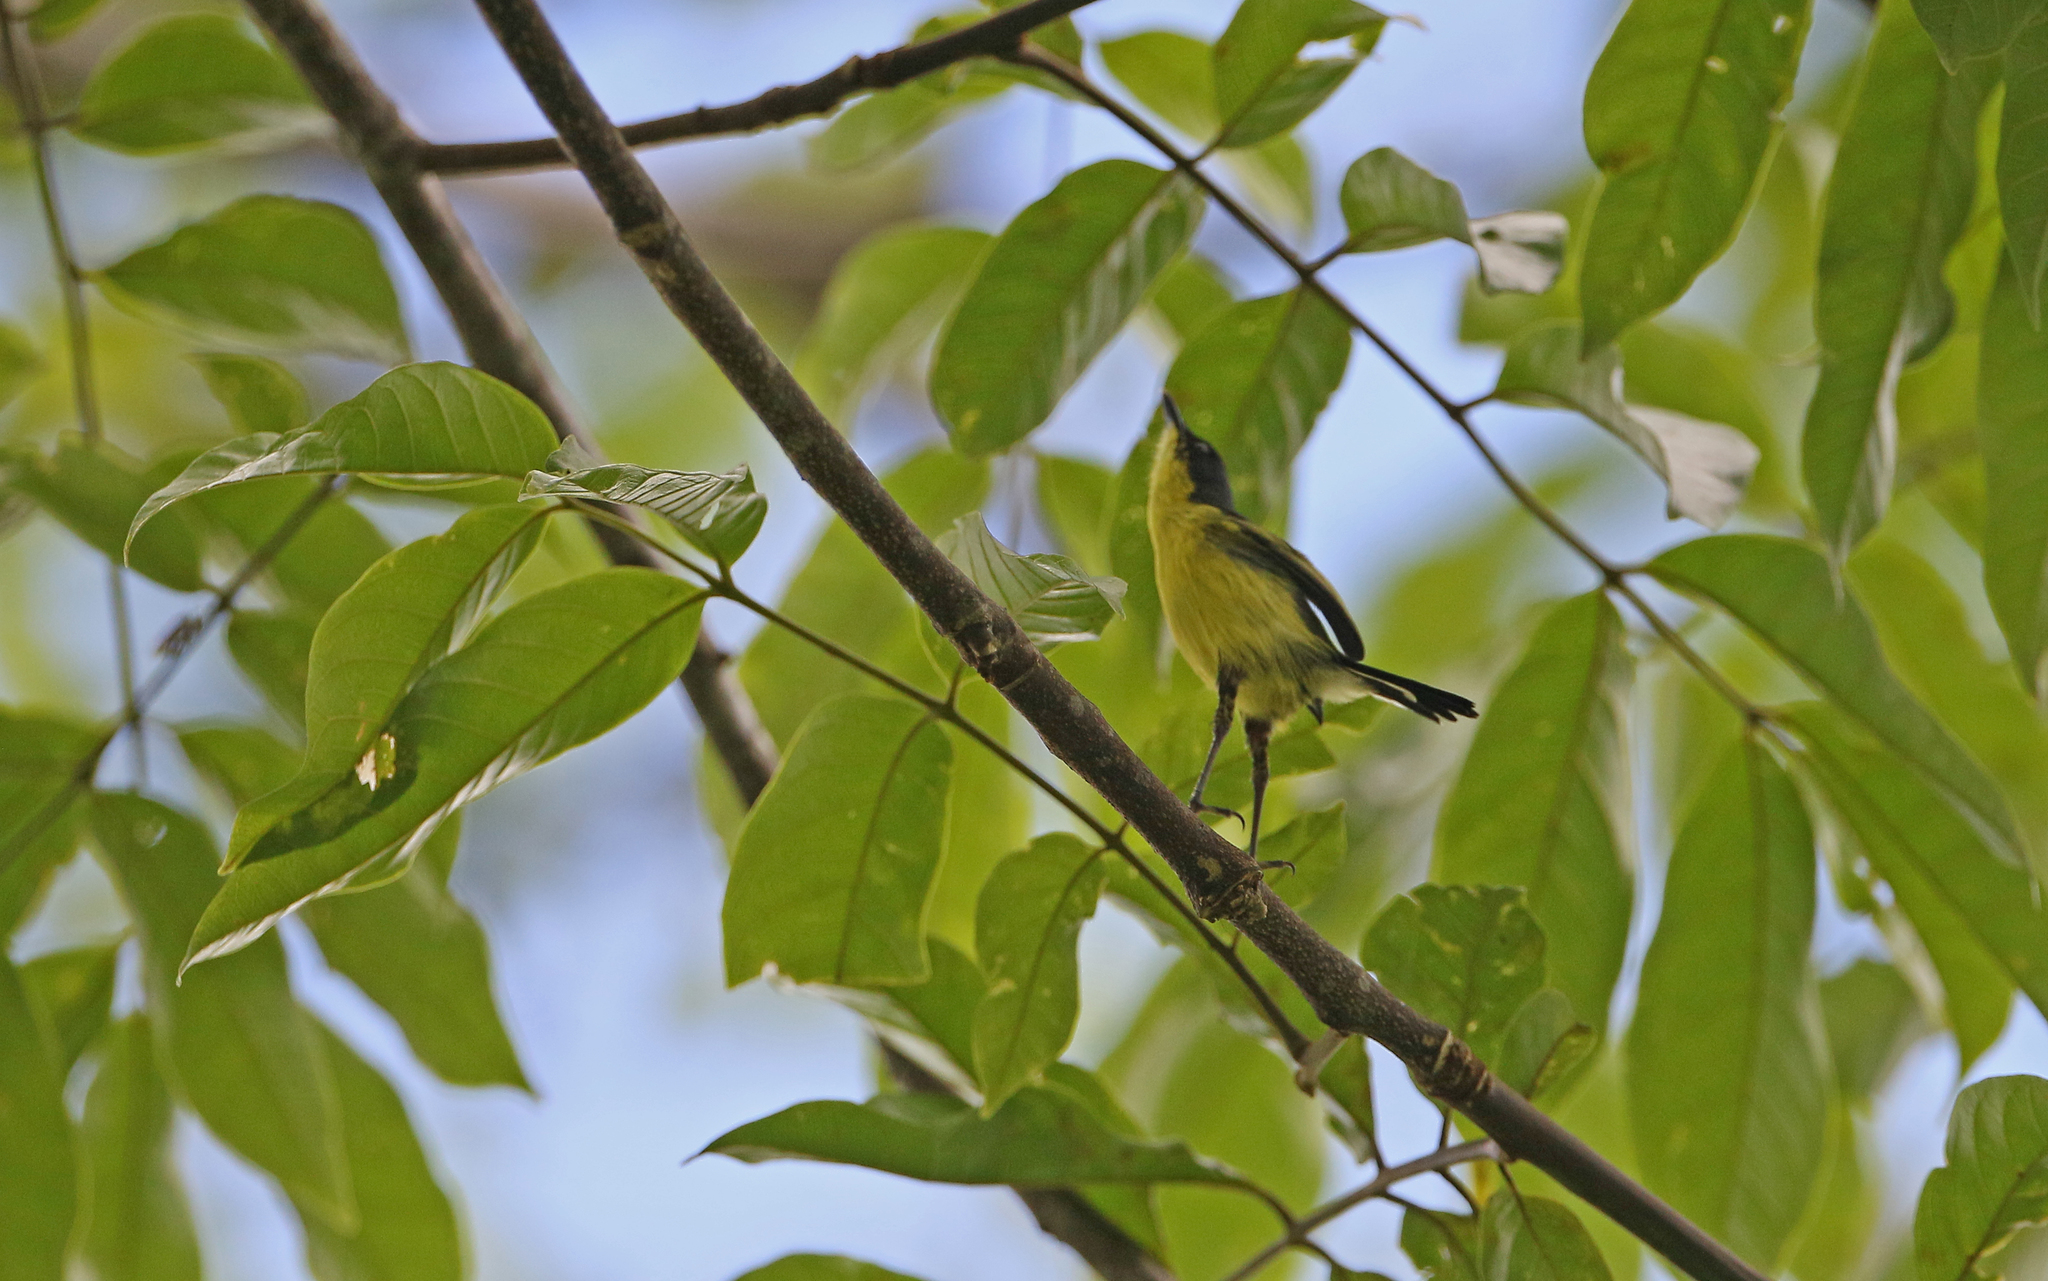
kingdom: Animalia
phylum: Chordata
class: Aves
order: Passeriformes
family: Tyrannidae
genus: Todirostrum
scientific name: Todirostrum cinereum
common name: Common tody-flycatcher
